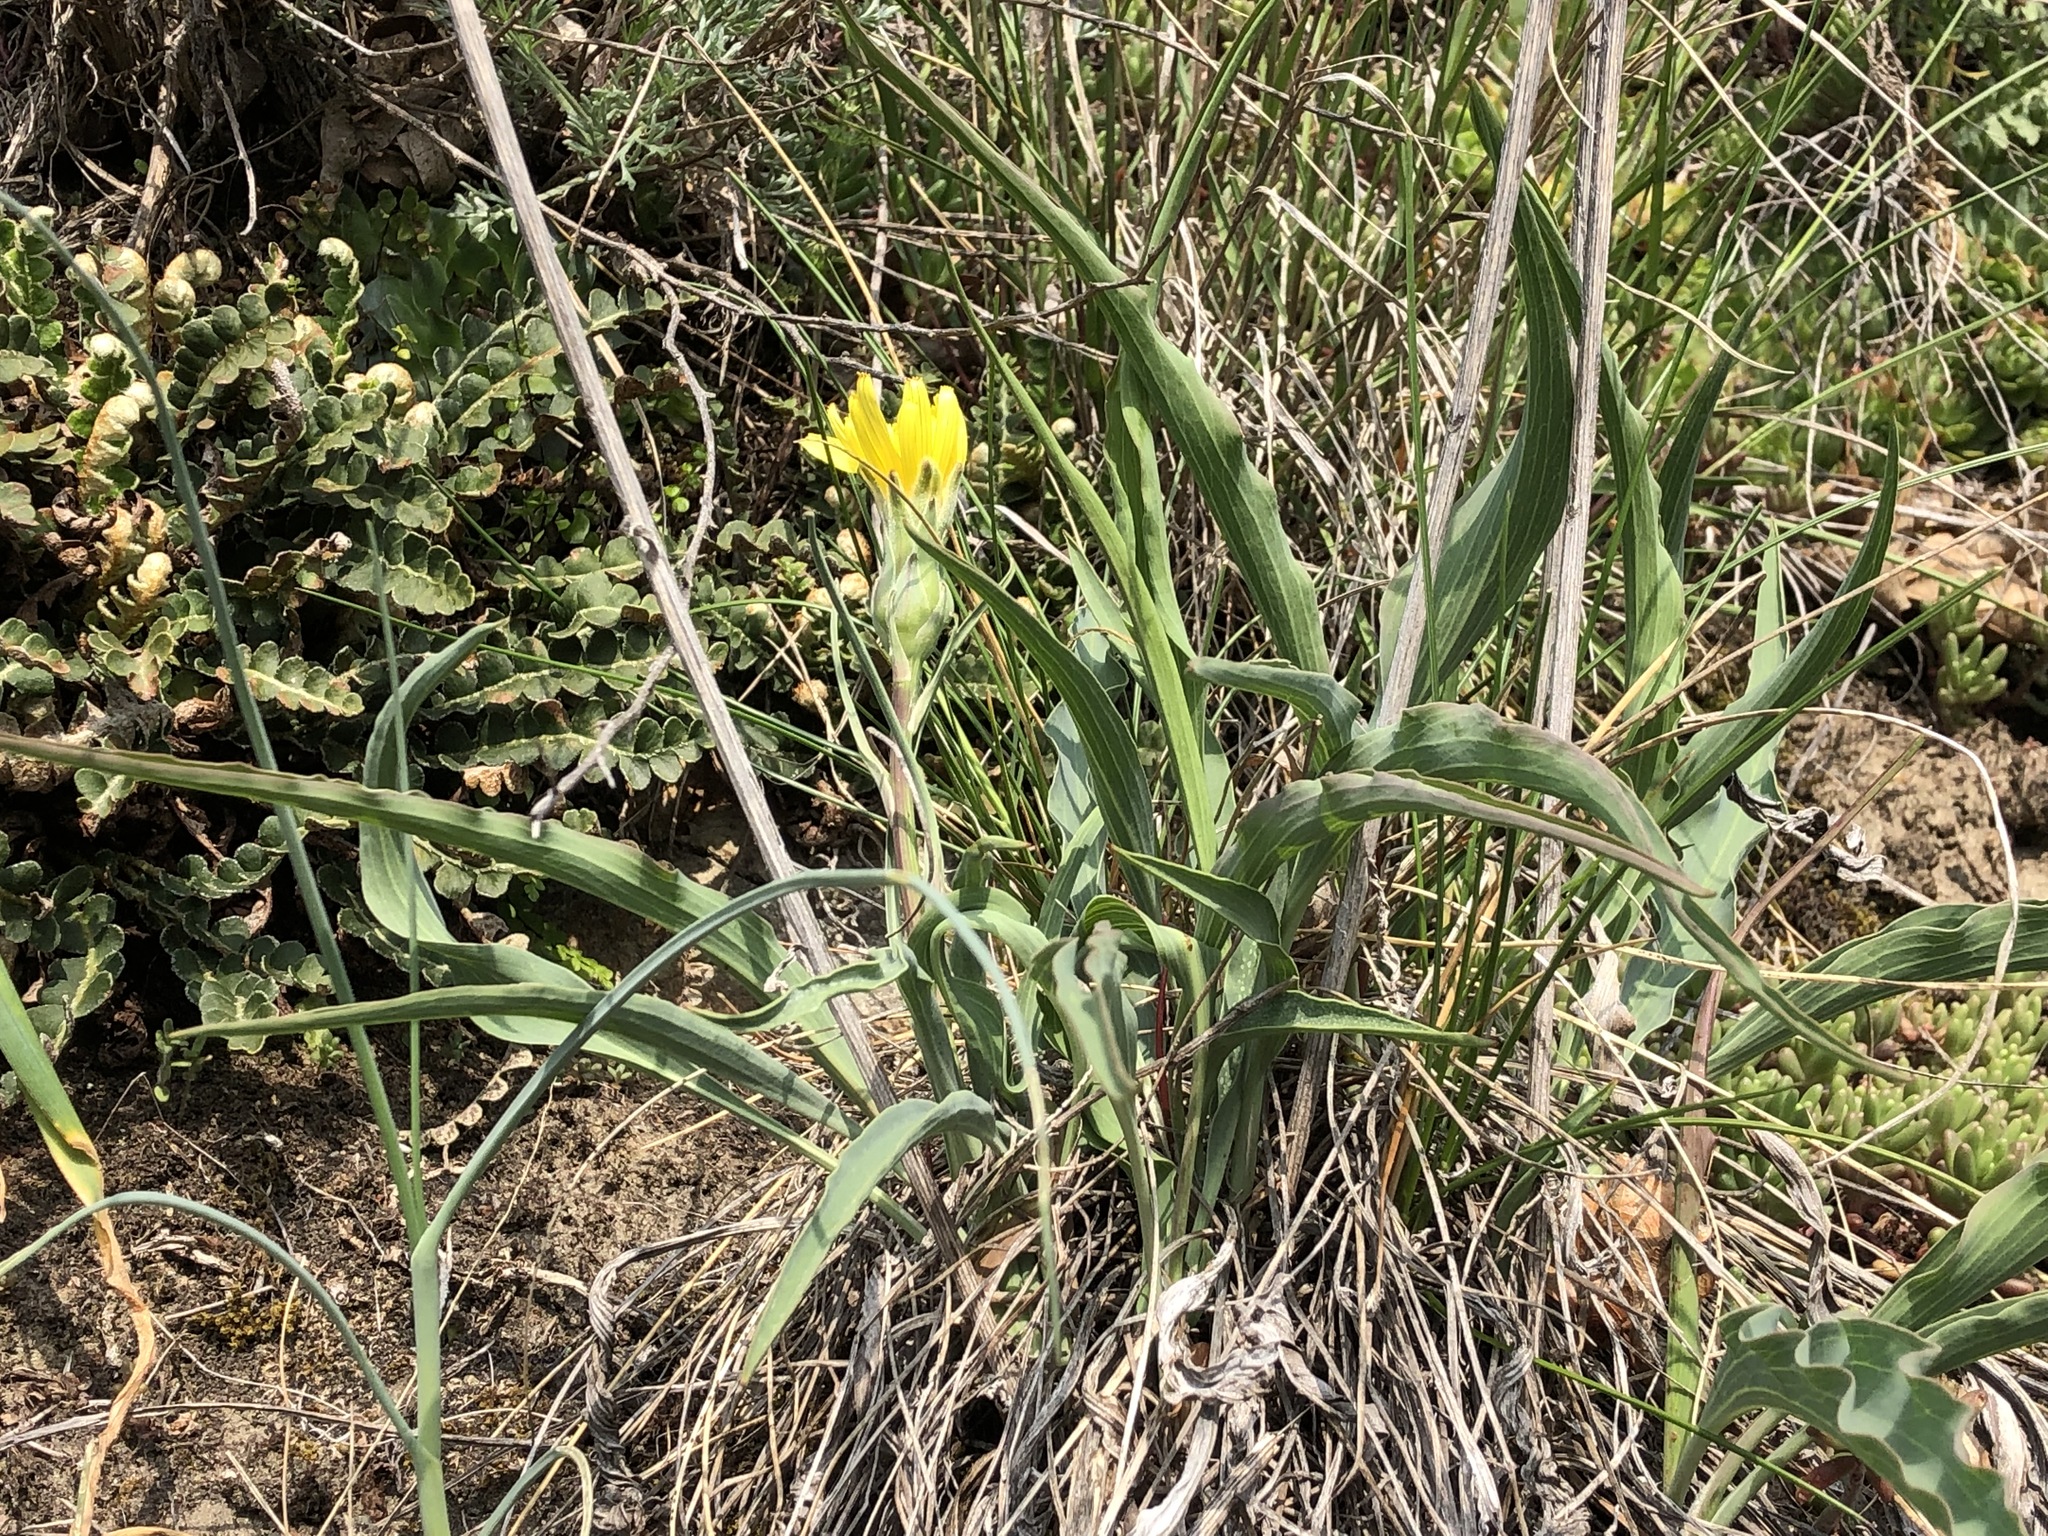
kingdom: Plantae
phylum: Tracheophyta
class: Magnoliopsida
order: Asterales
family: Asteraceae
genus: Takhtajaniantha
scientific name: Takhtajaniantha austriaca
